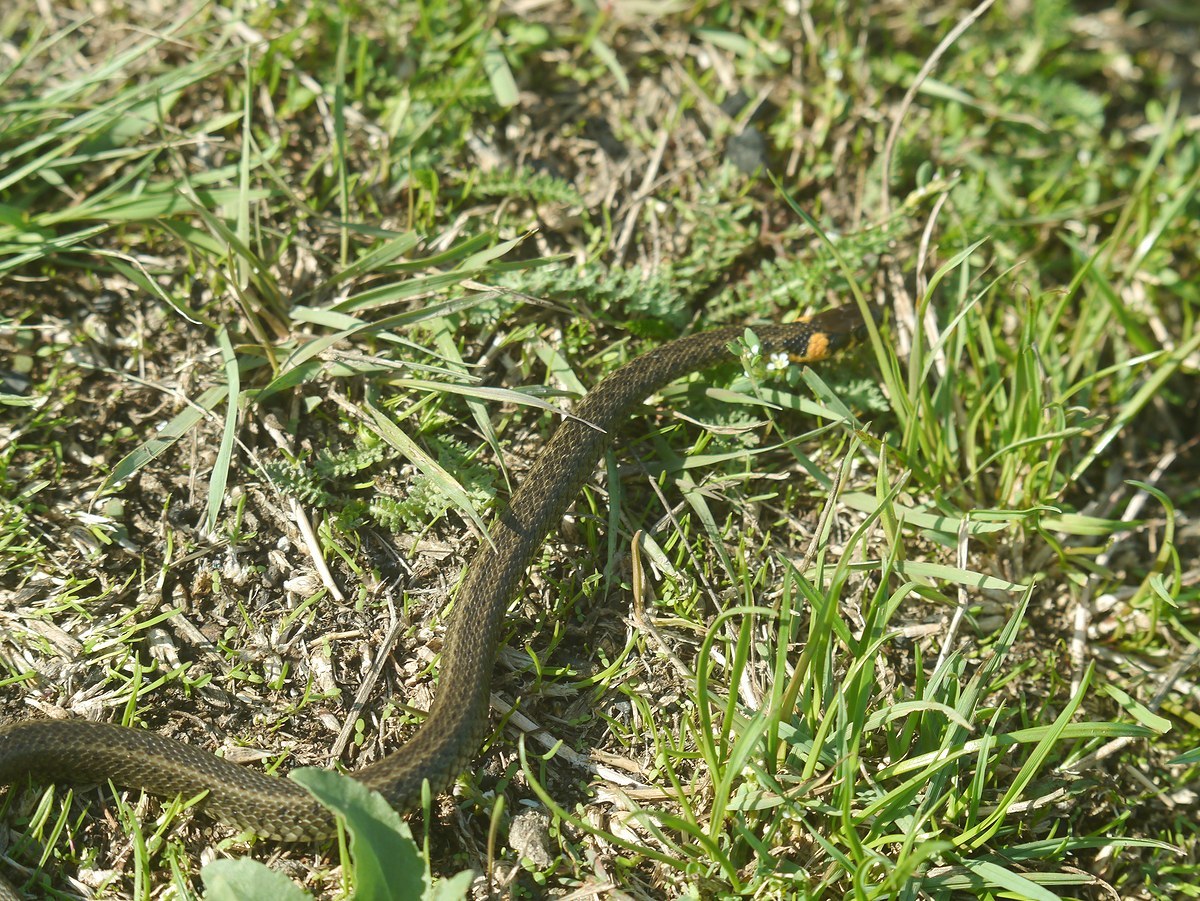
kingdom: Animalia
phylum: Chordata
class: Squamata
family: Colubridae
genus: Natrix
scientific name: Natrix natrix
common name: Grass snake
